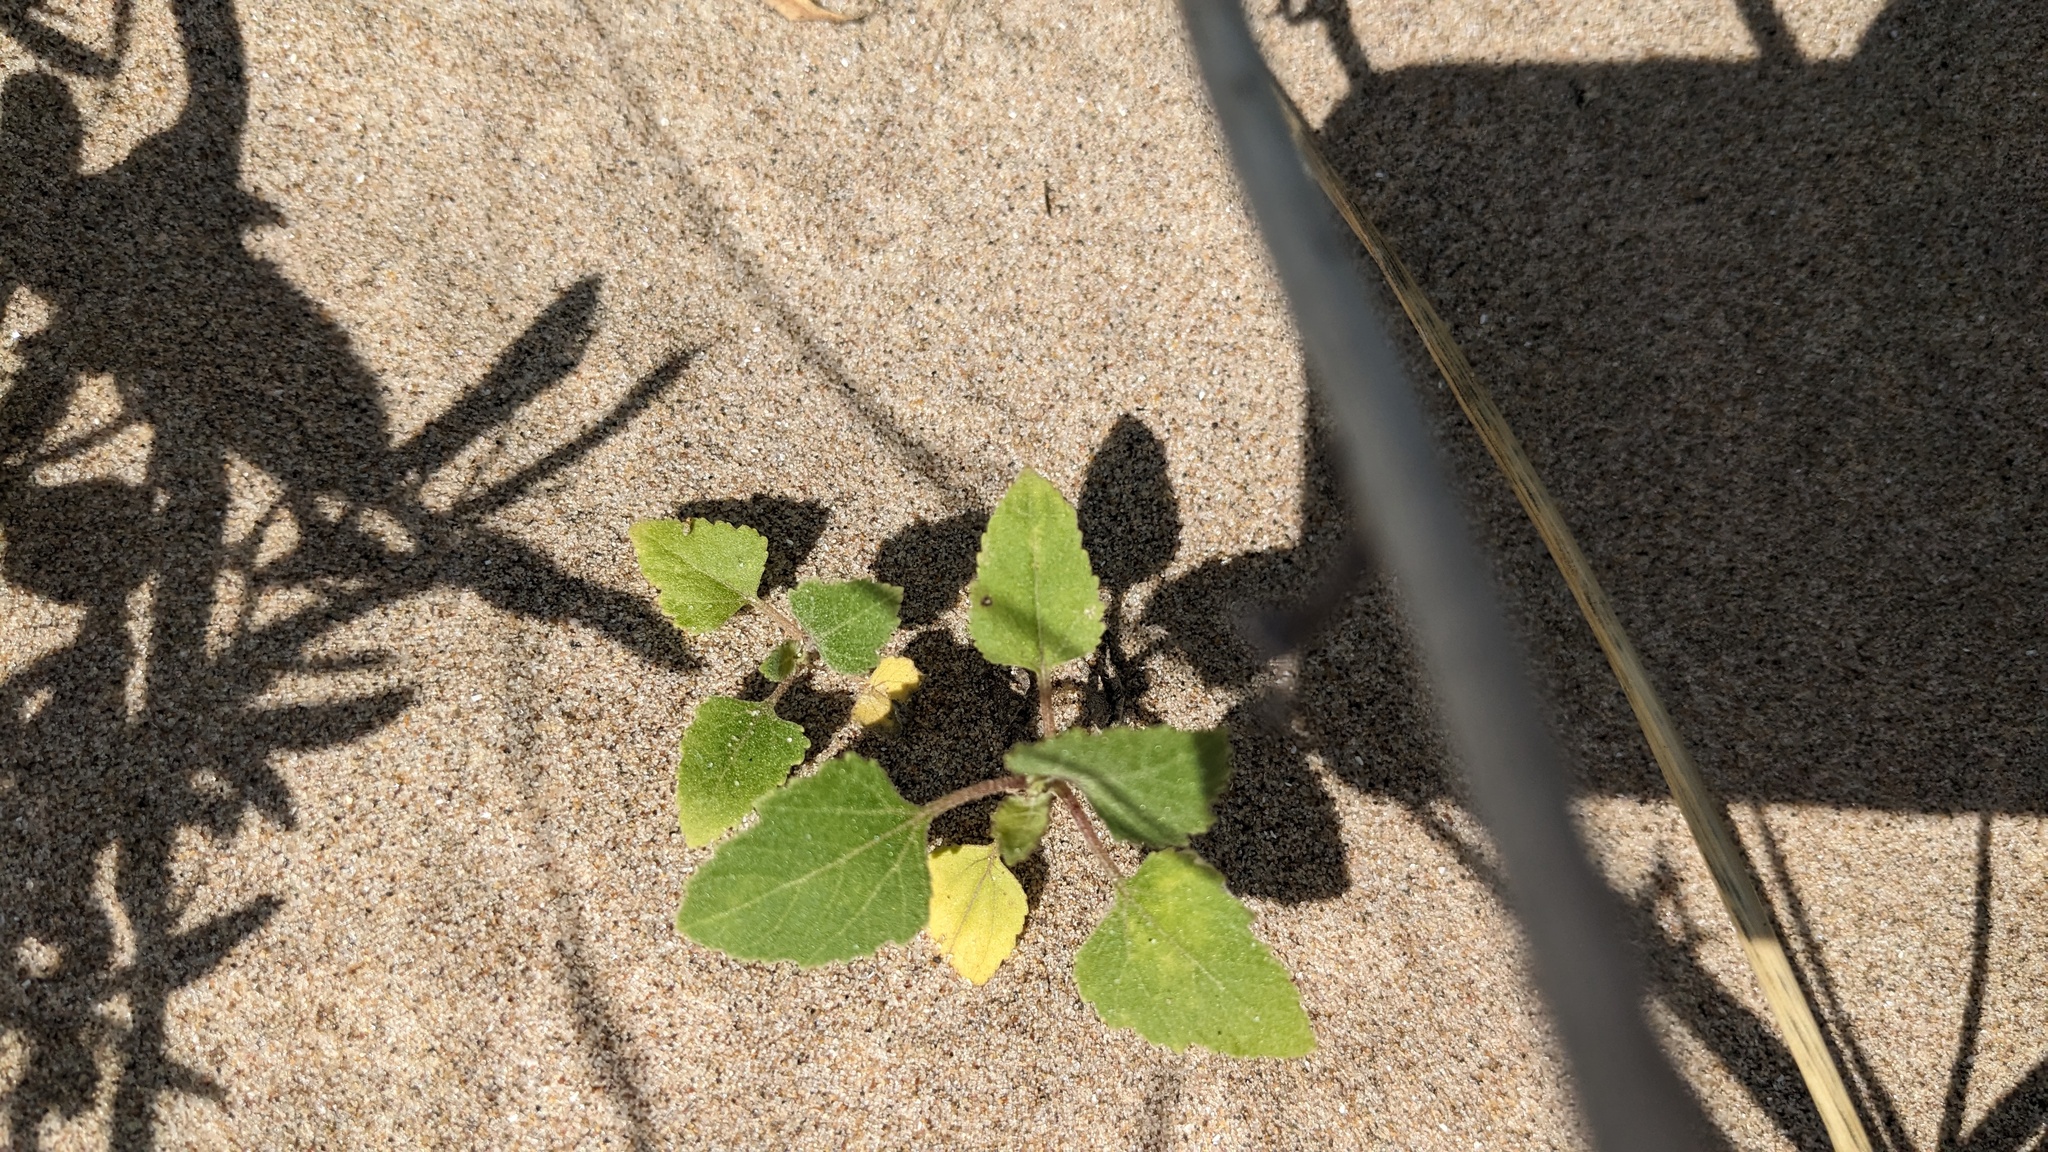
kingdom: Plantae
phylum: Tracheophyta
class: Magnoliopsida
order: Asterales
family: Asteraceae
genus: Xanthium
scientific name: Xanthium strumarium
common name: Rough cocklebur
